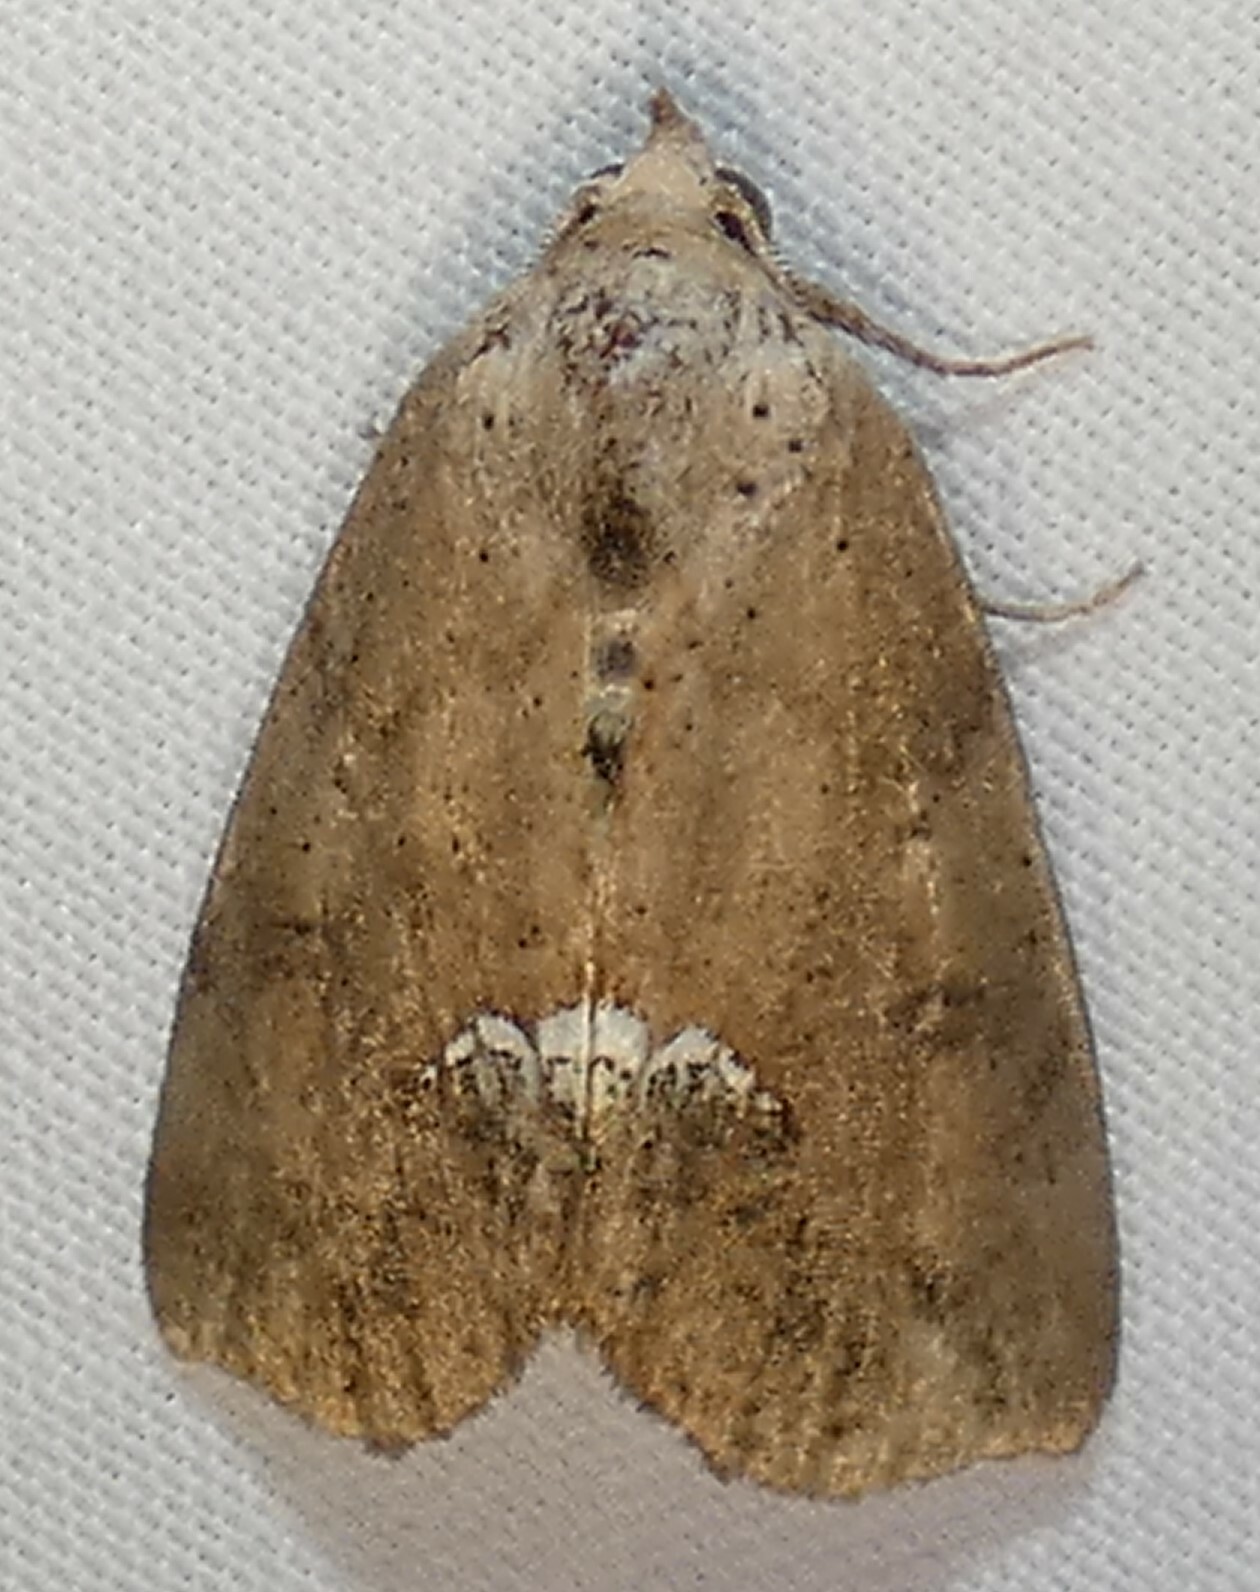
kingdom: Animalia
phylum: Arthropoda
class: Insecta
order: Lepidoptera
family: Erebidae
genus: Hypsoropha
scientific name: Hypsoropha hormos
